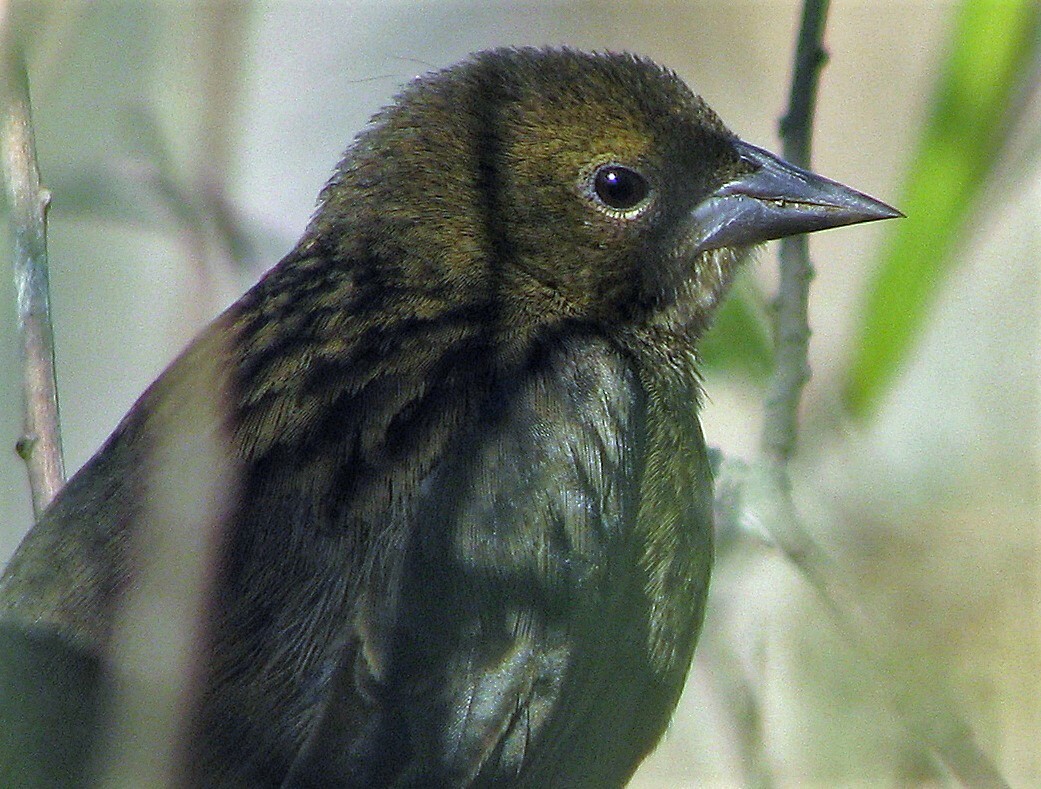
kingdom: Animalia
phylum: Chordata
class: Aves
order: Passeriformes
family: Icteridae
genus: Chrysomus
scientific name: Chrysomus ruficapillus
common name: Chestnut-capped blackbird
